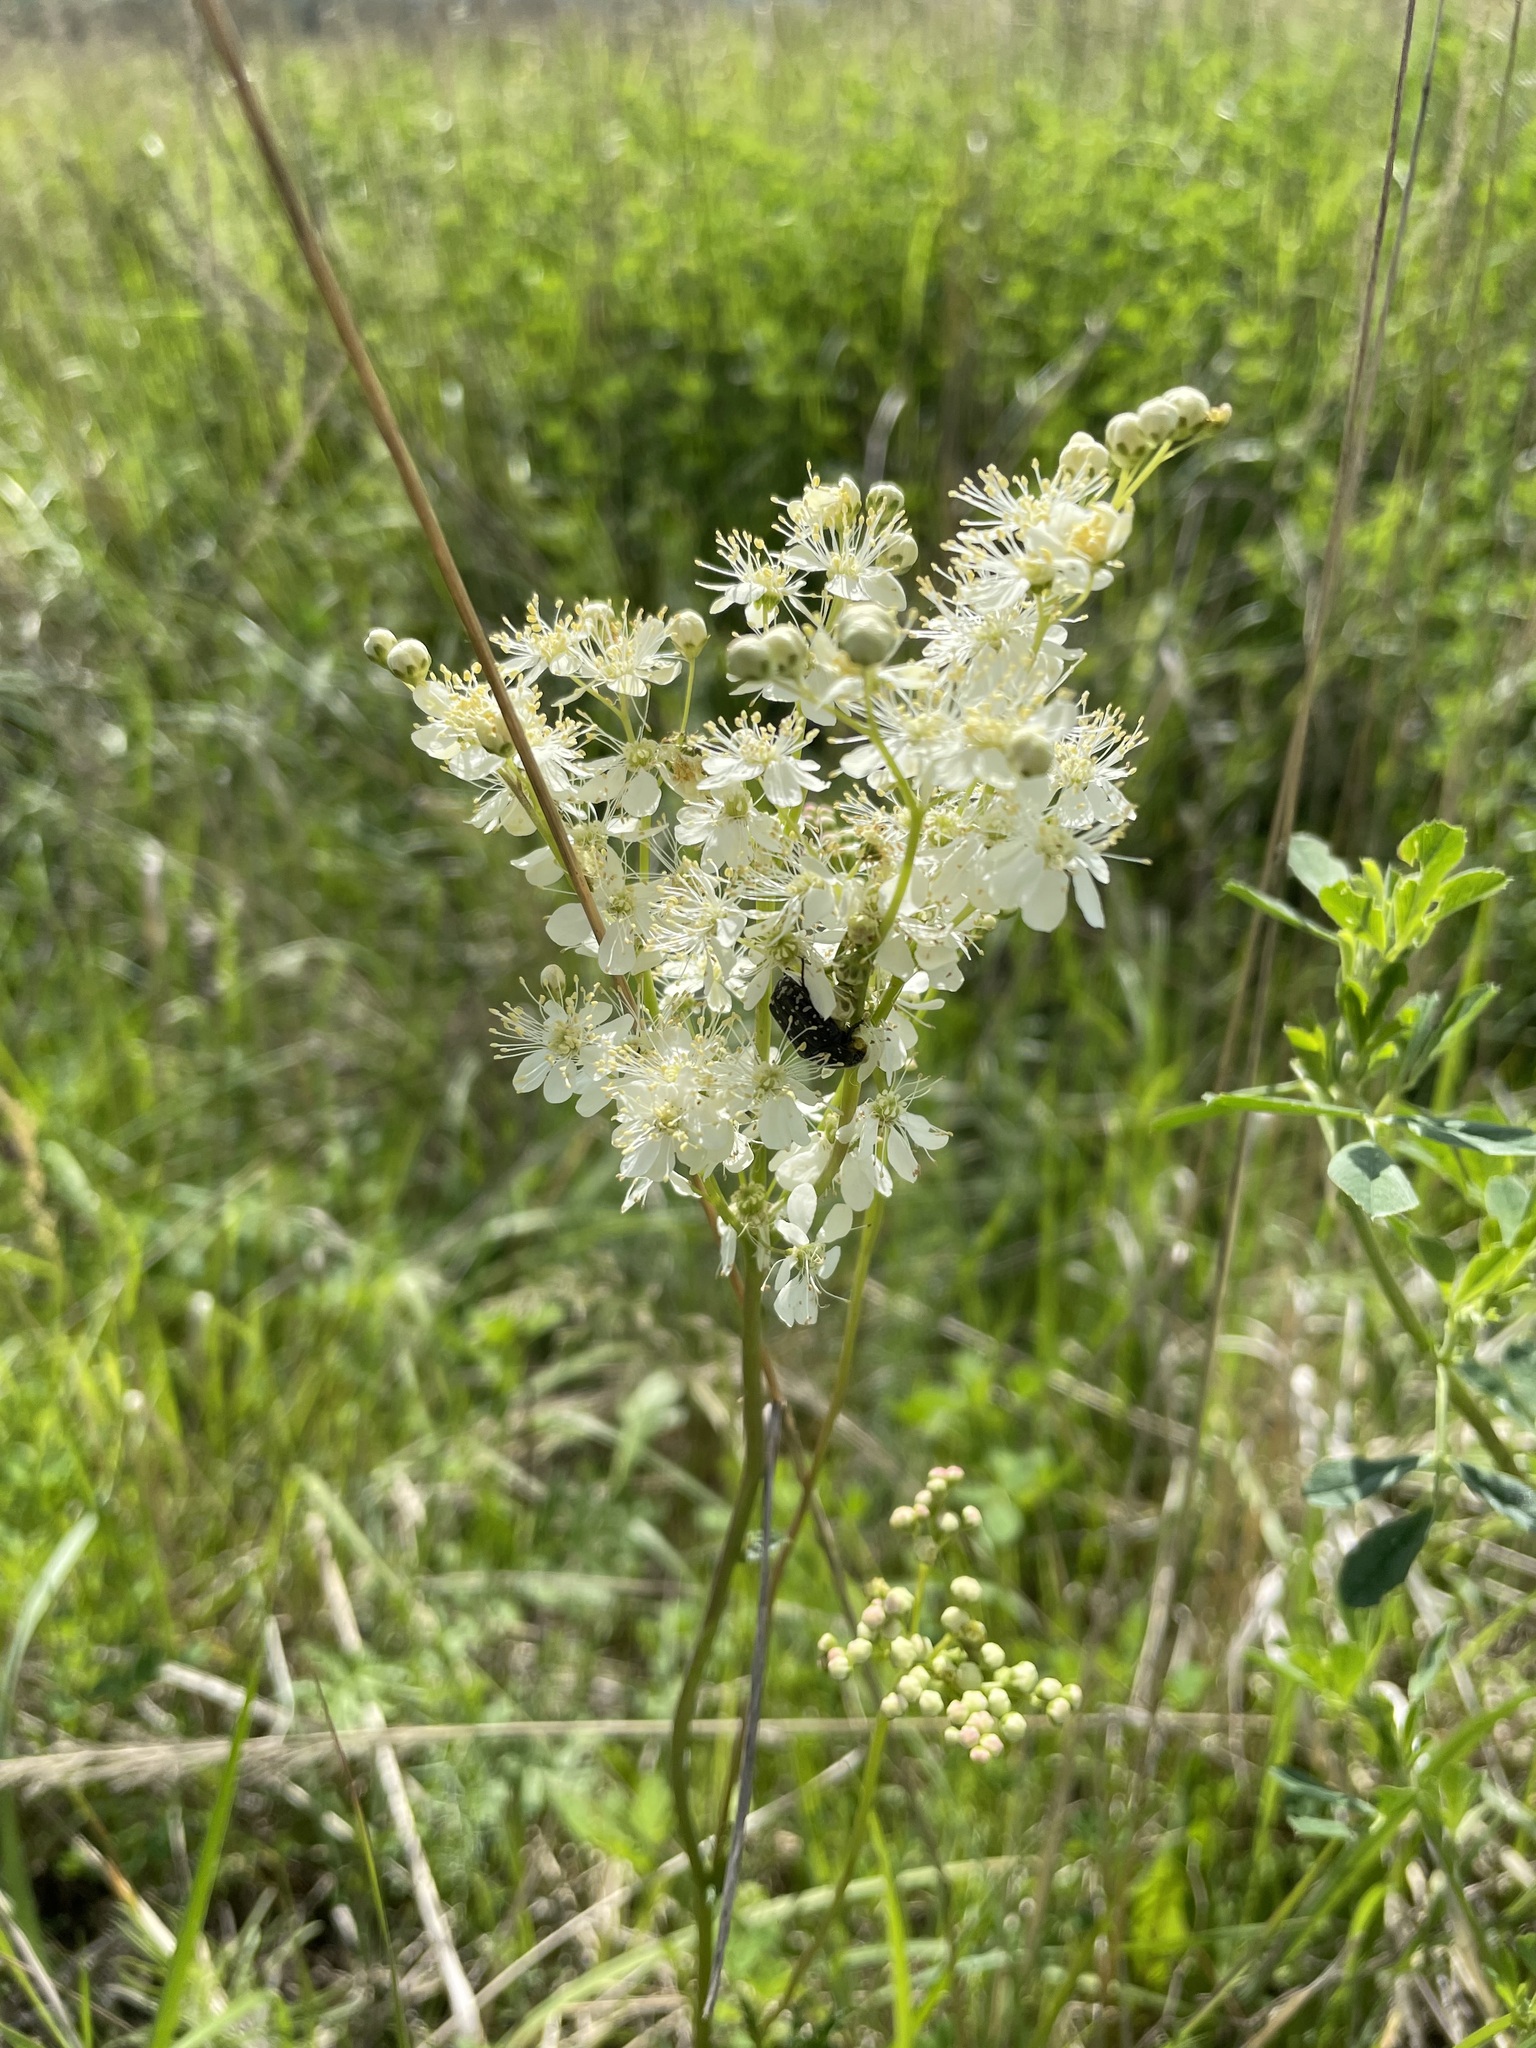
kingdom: Plantae
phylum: Tracheophyta
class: Magnoliopsida
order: Rosales
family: Rosaceae
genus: Filipendula
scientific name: Filipendula vulgaris
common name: Dropwort
